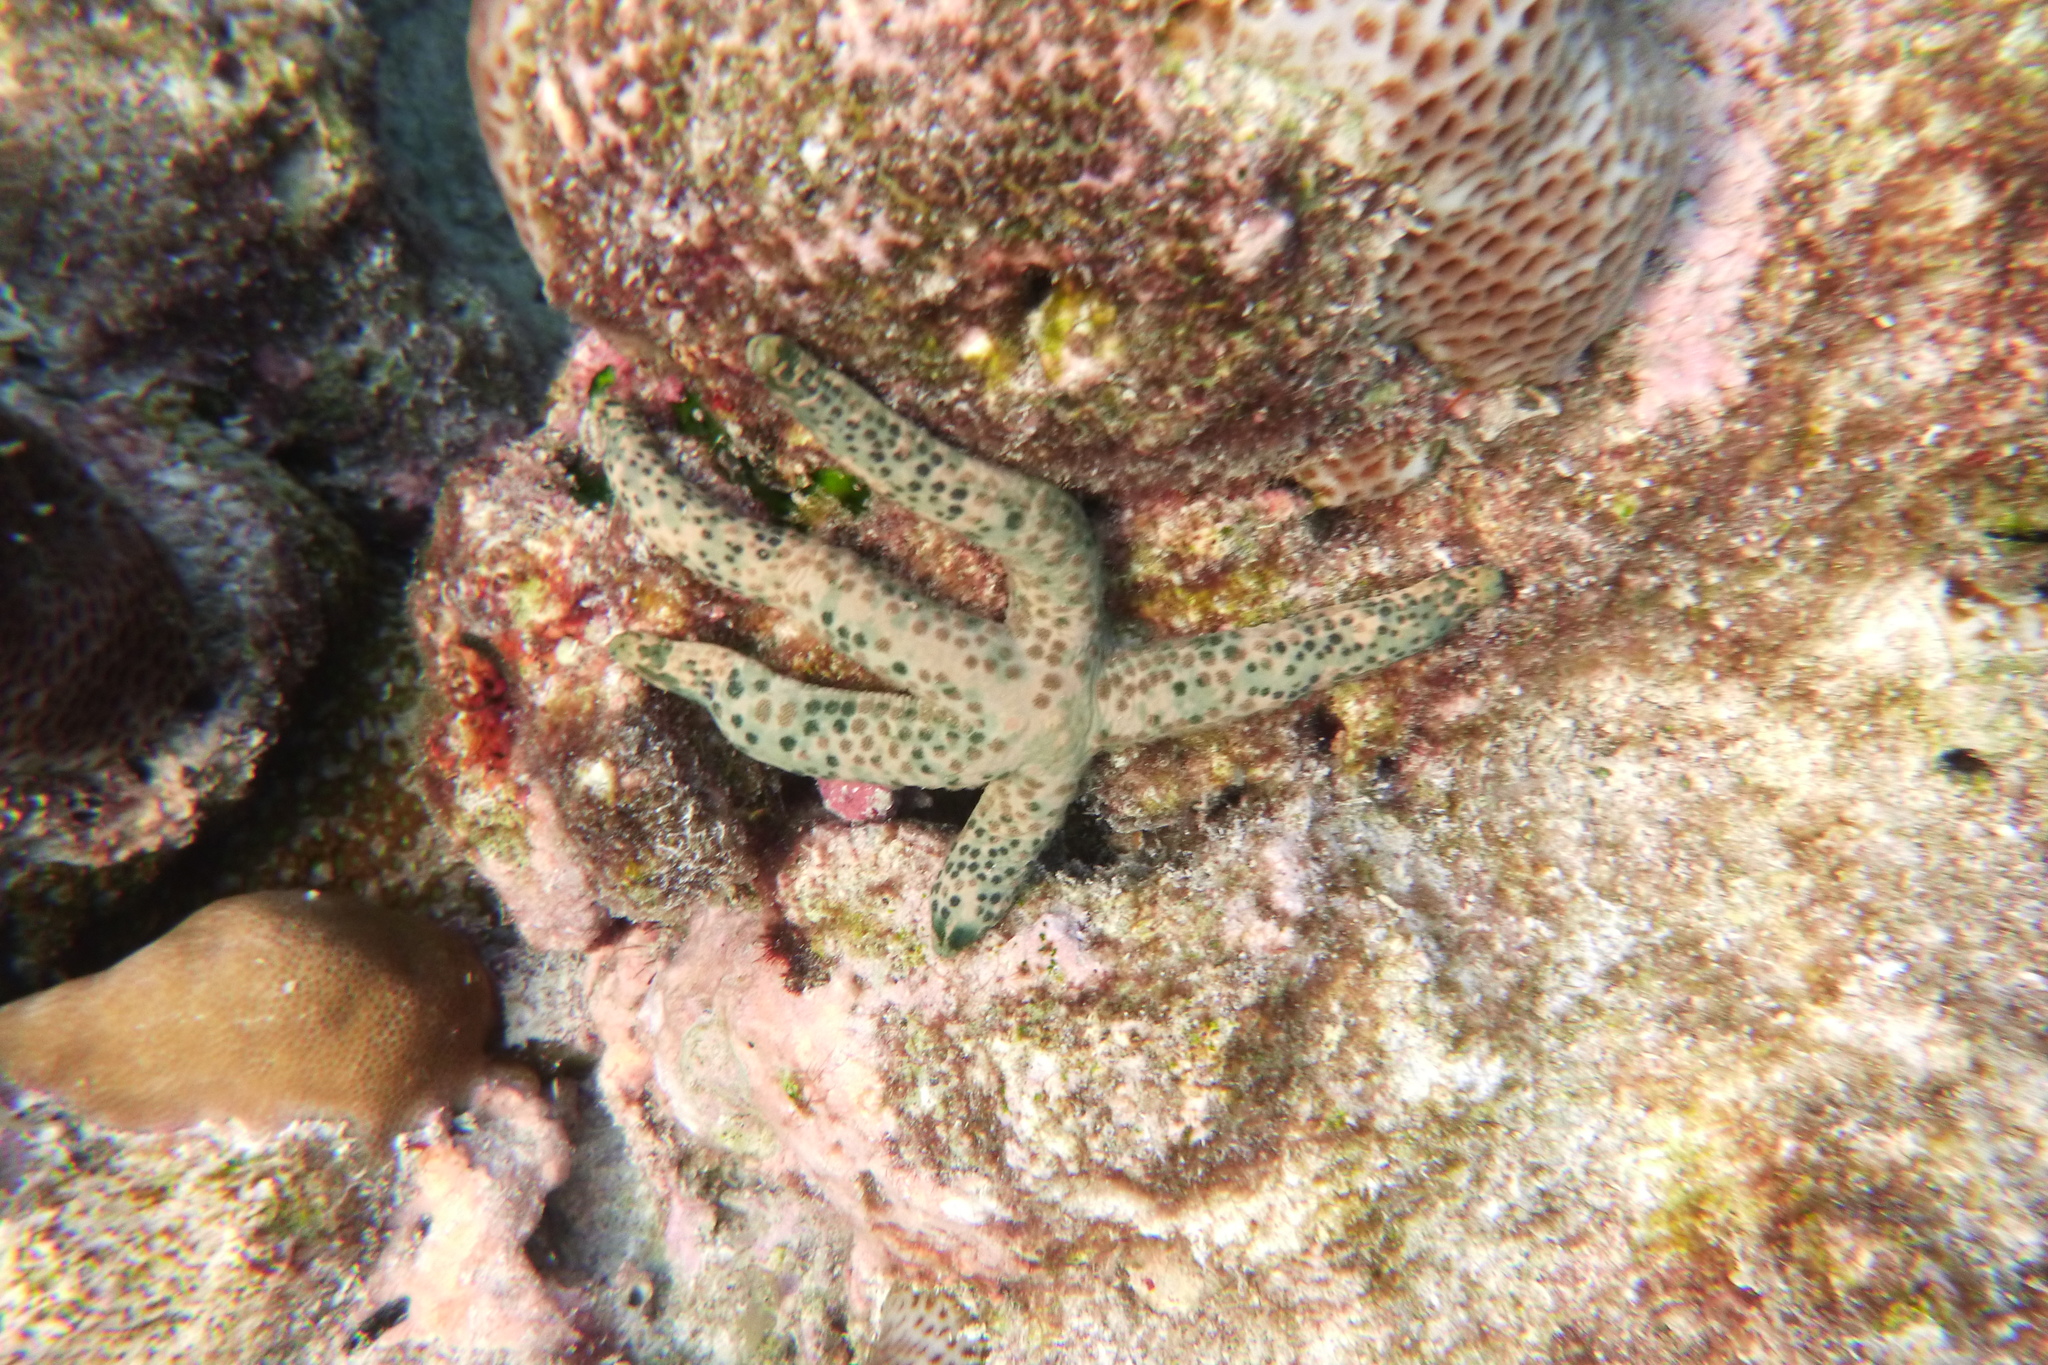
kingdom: Animalia
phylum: Echinodermata
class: Asteroidea
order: Valvatida
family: Ophidiasteridae
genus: Linckia
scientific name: Linckia multifora
